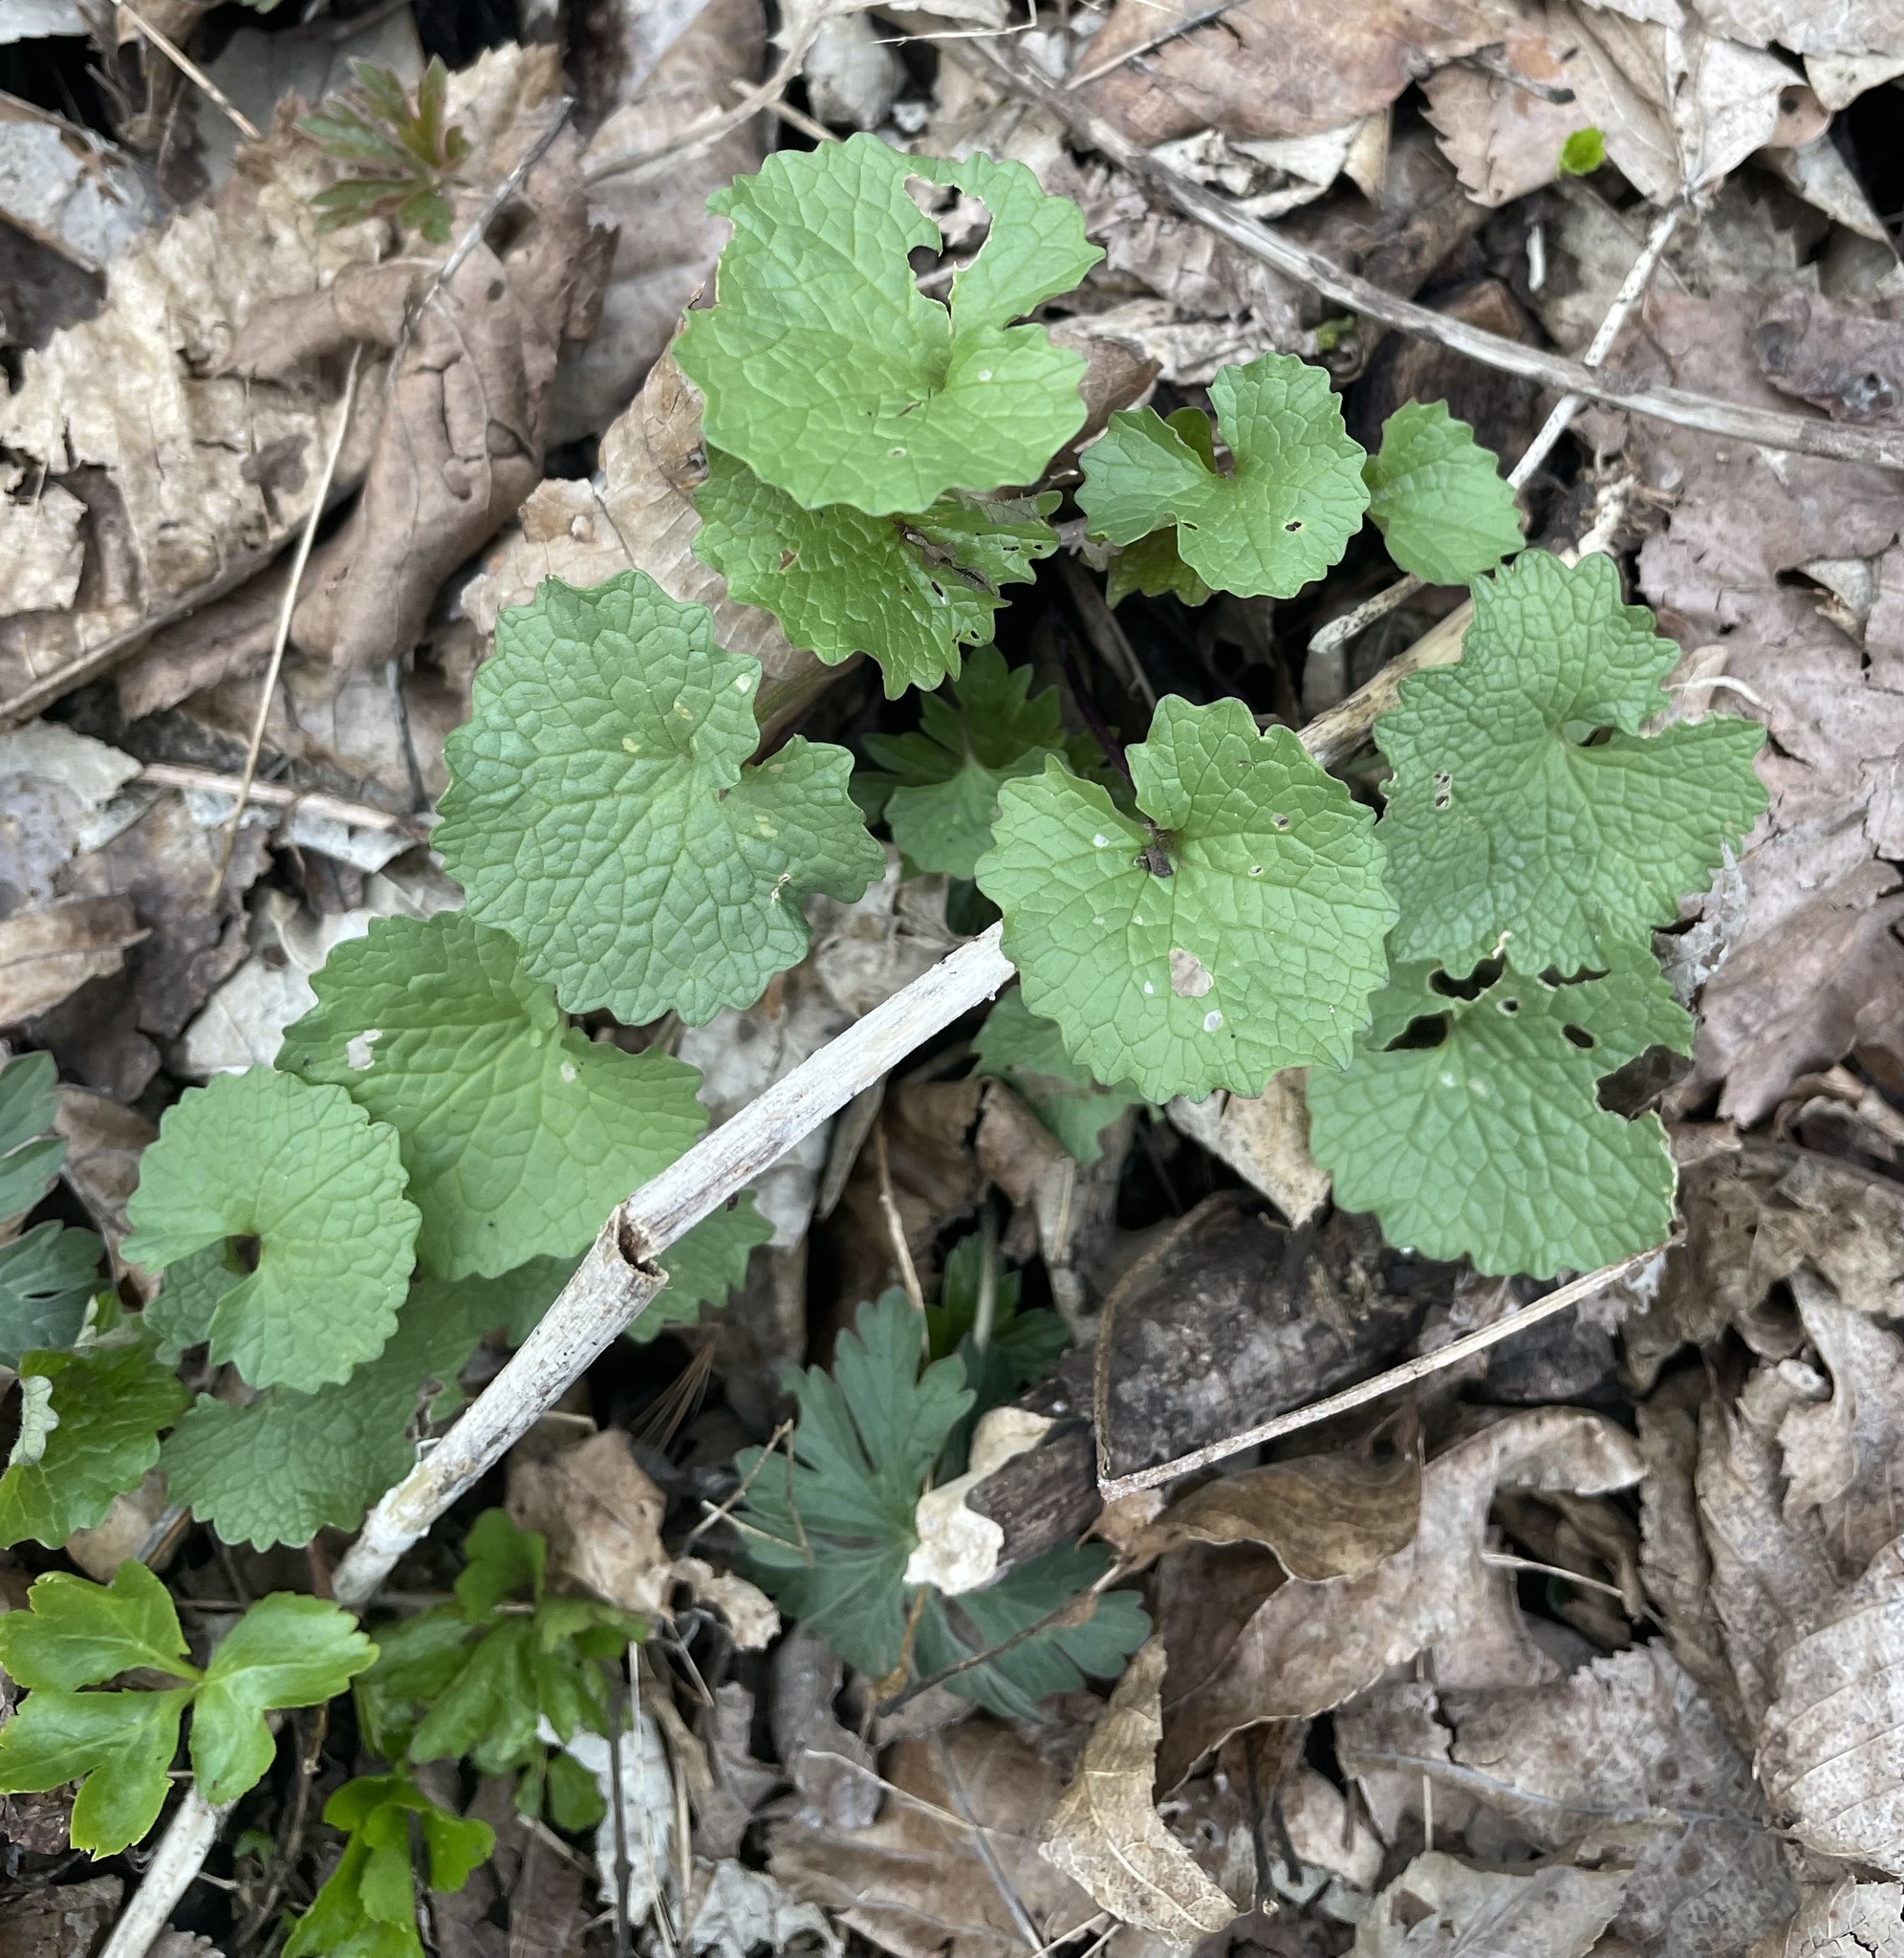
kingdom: Plantae
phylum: Tracheophyta
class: Magnoliopsida
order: Brassicales
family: Brassicaceae
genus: Alliaria
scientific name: Alliaria petiolata
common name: Garlic mustard
